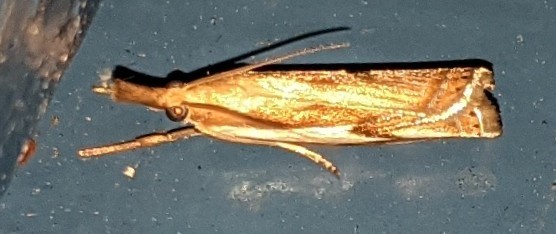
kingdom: Animalia
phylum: Arthropoda
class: Insecta
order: Lepidoptera
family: Crambidae
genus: Crambus
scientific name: Crambus agitatellus
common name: Double-banded grass-veneer
